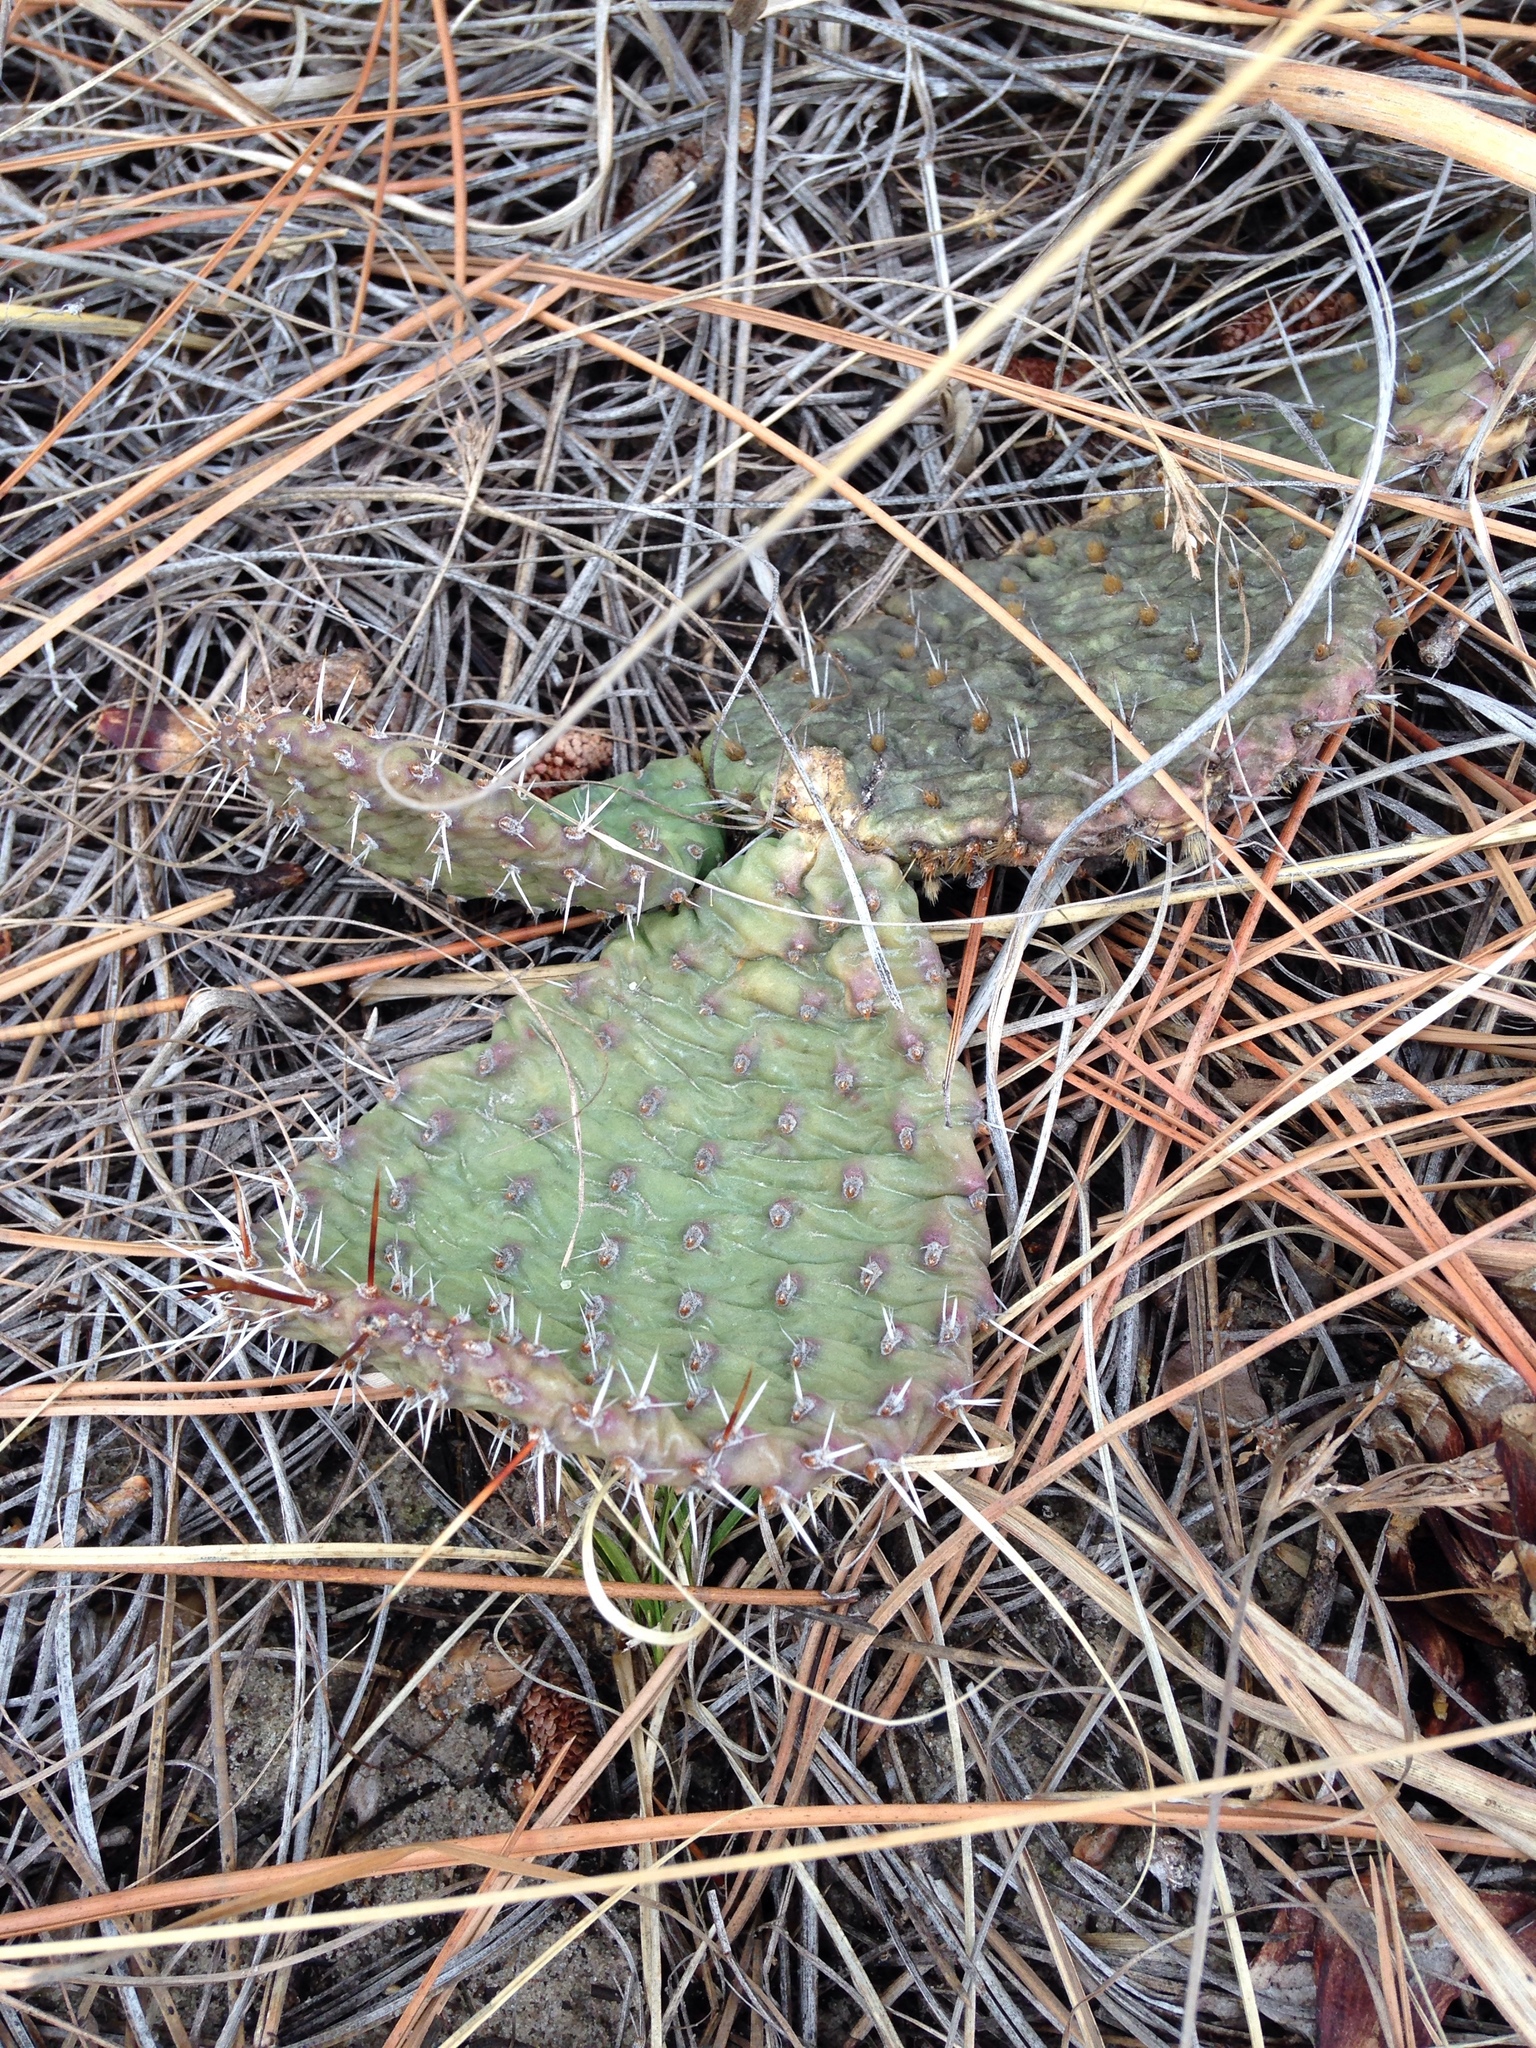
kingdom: Plantae
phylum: Tracheophyta
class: Magnoliopsida
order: Caryophyllales
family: Cactaceae
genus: Opuntia
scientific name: Opuntia cymochila
